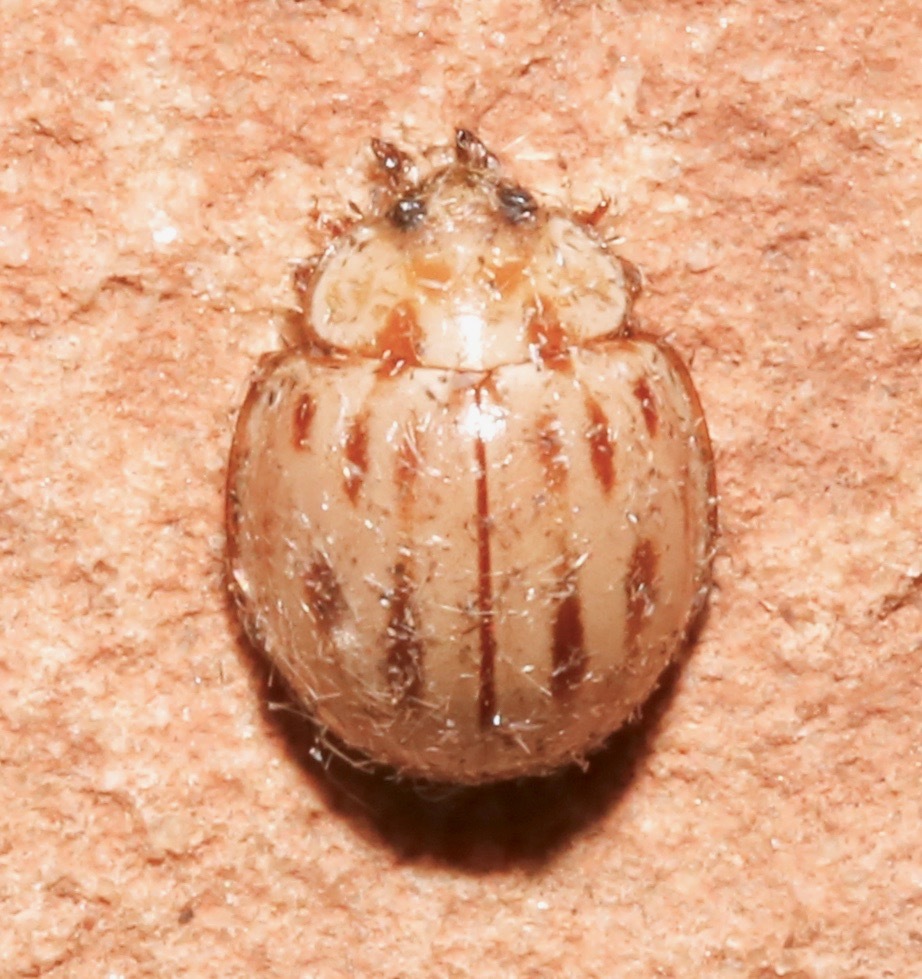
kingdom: Animalia
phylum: Arthropoda
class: Insecta
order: Coleoptera
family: Coccinellidae
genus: Myzia
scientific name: Myzia interrupta
